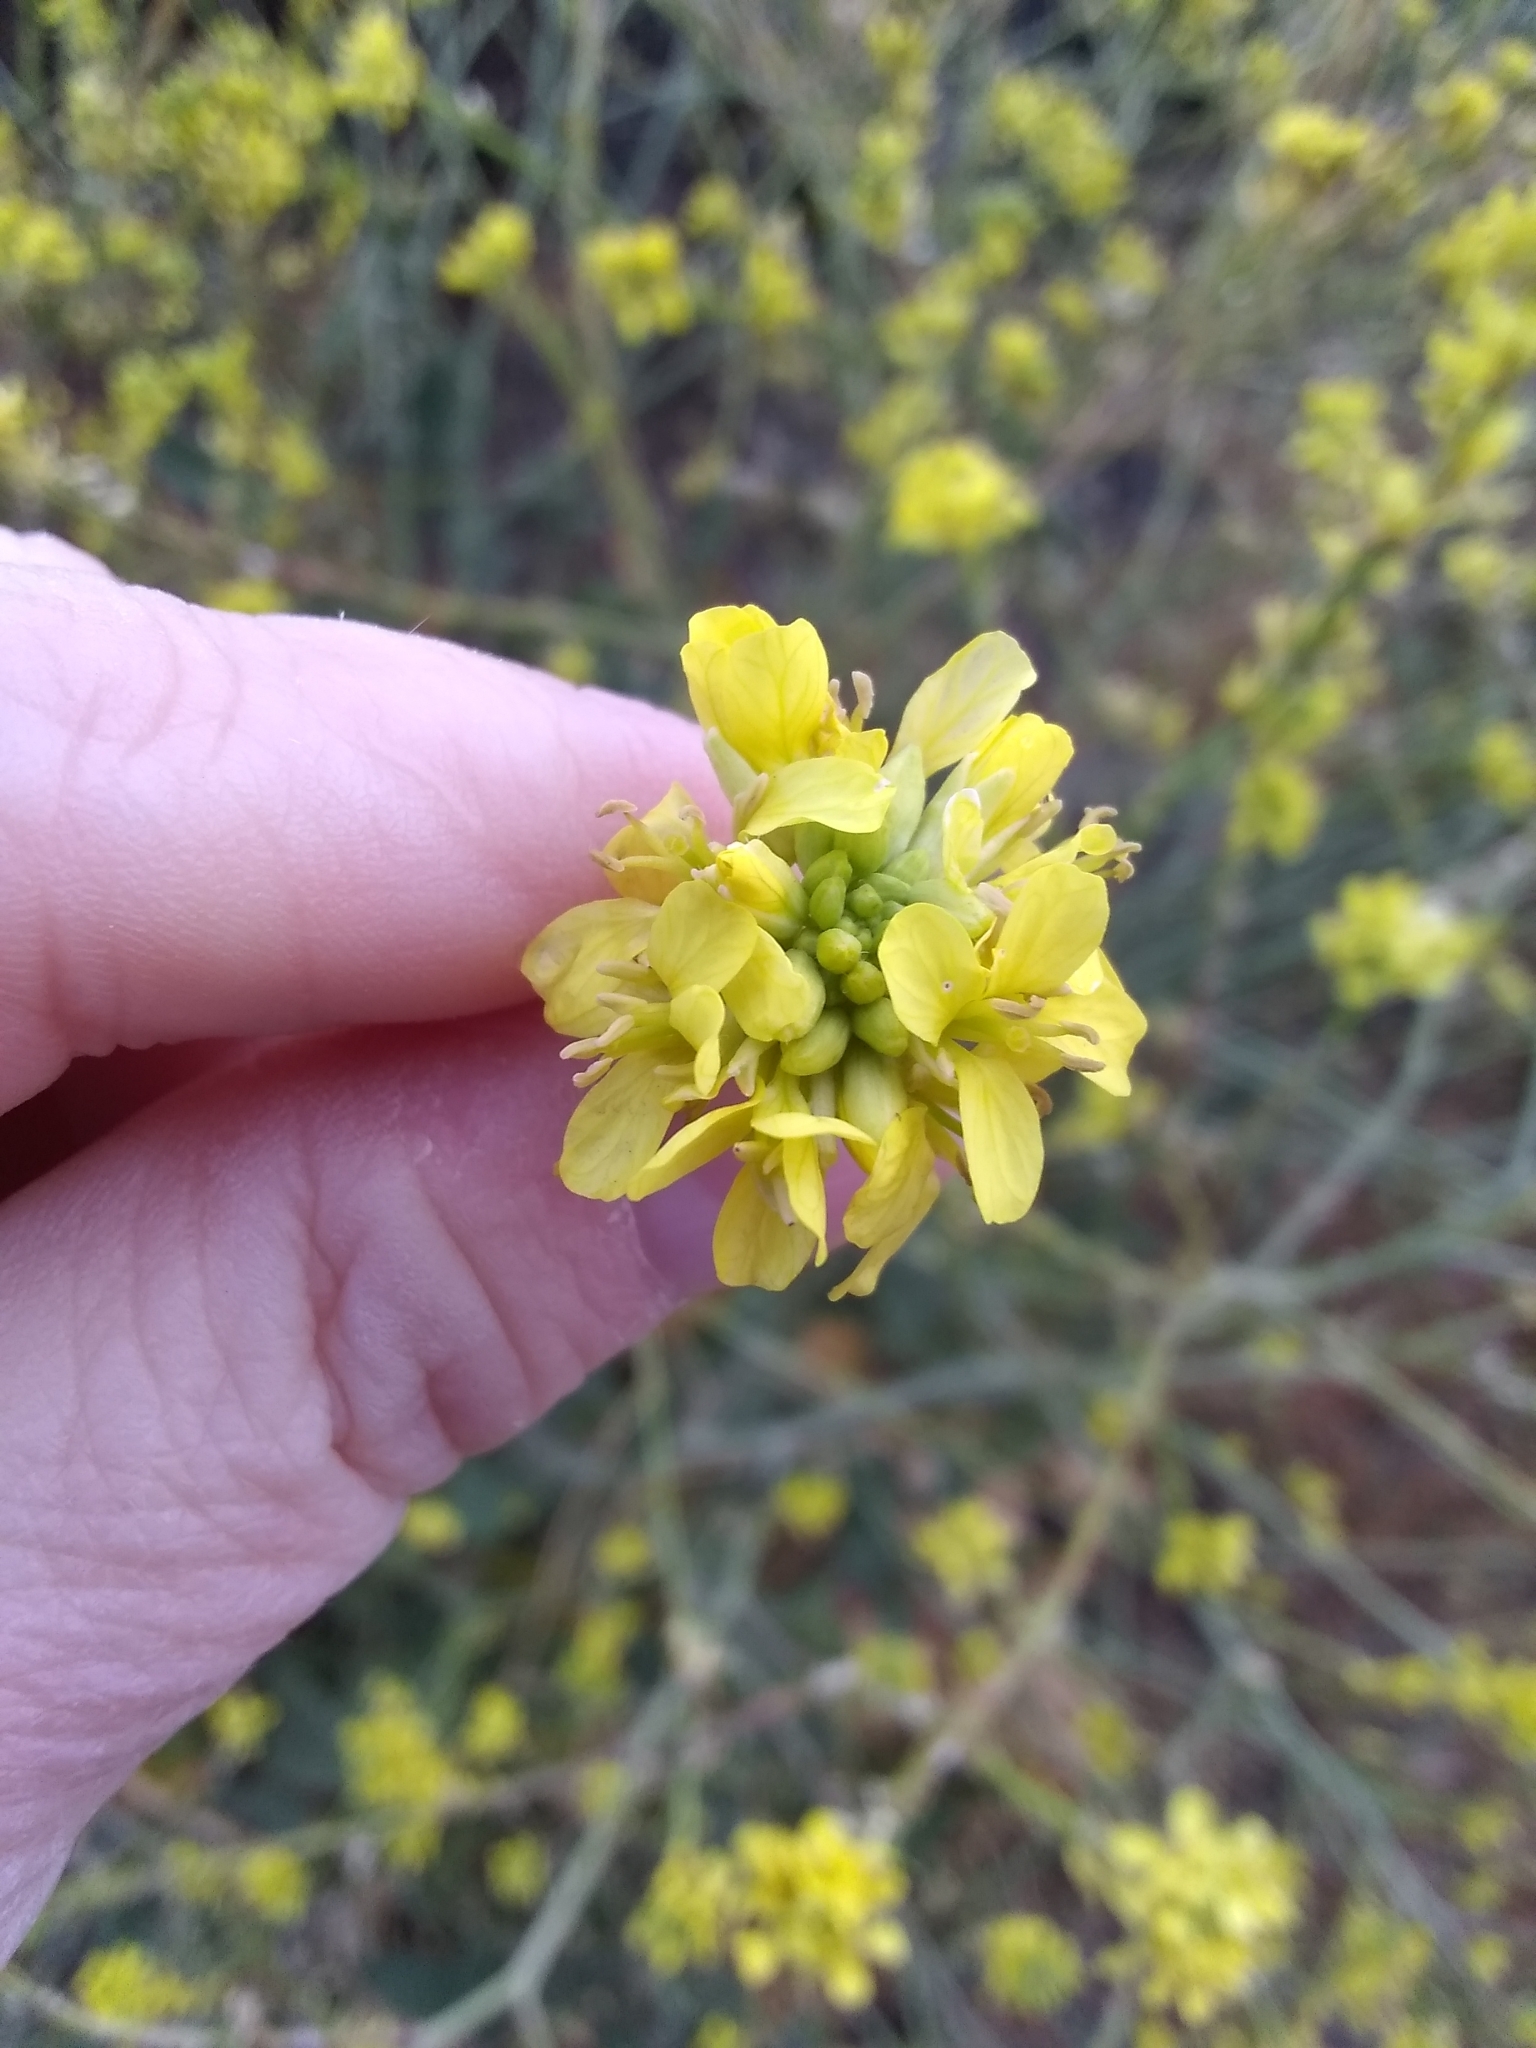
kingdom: Plantae
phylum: Tracheophyta
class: Magnoliopsida
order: Brassicales
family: Brassicaceae
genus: Hirschfeldia
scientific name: Hirschfeldia incana
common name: Hoary mustard
